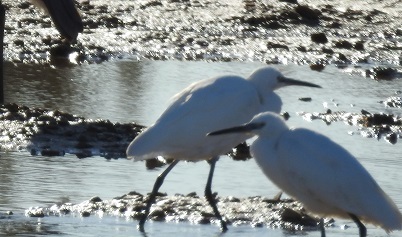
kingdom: Animalia
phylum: Chordata
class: Aves
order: Pelecaniformes
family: Ardeidae
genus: Egretta
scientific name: Egretta garzetta
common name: Little egret
